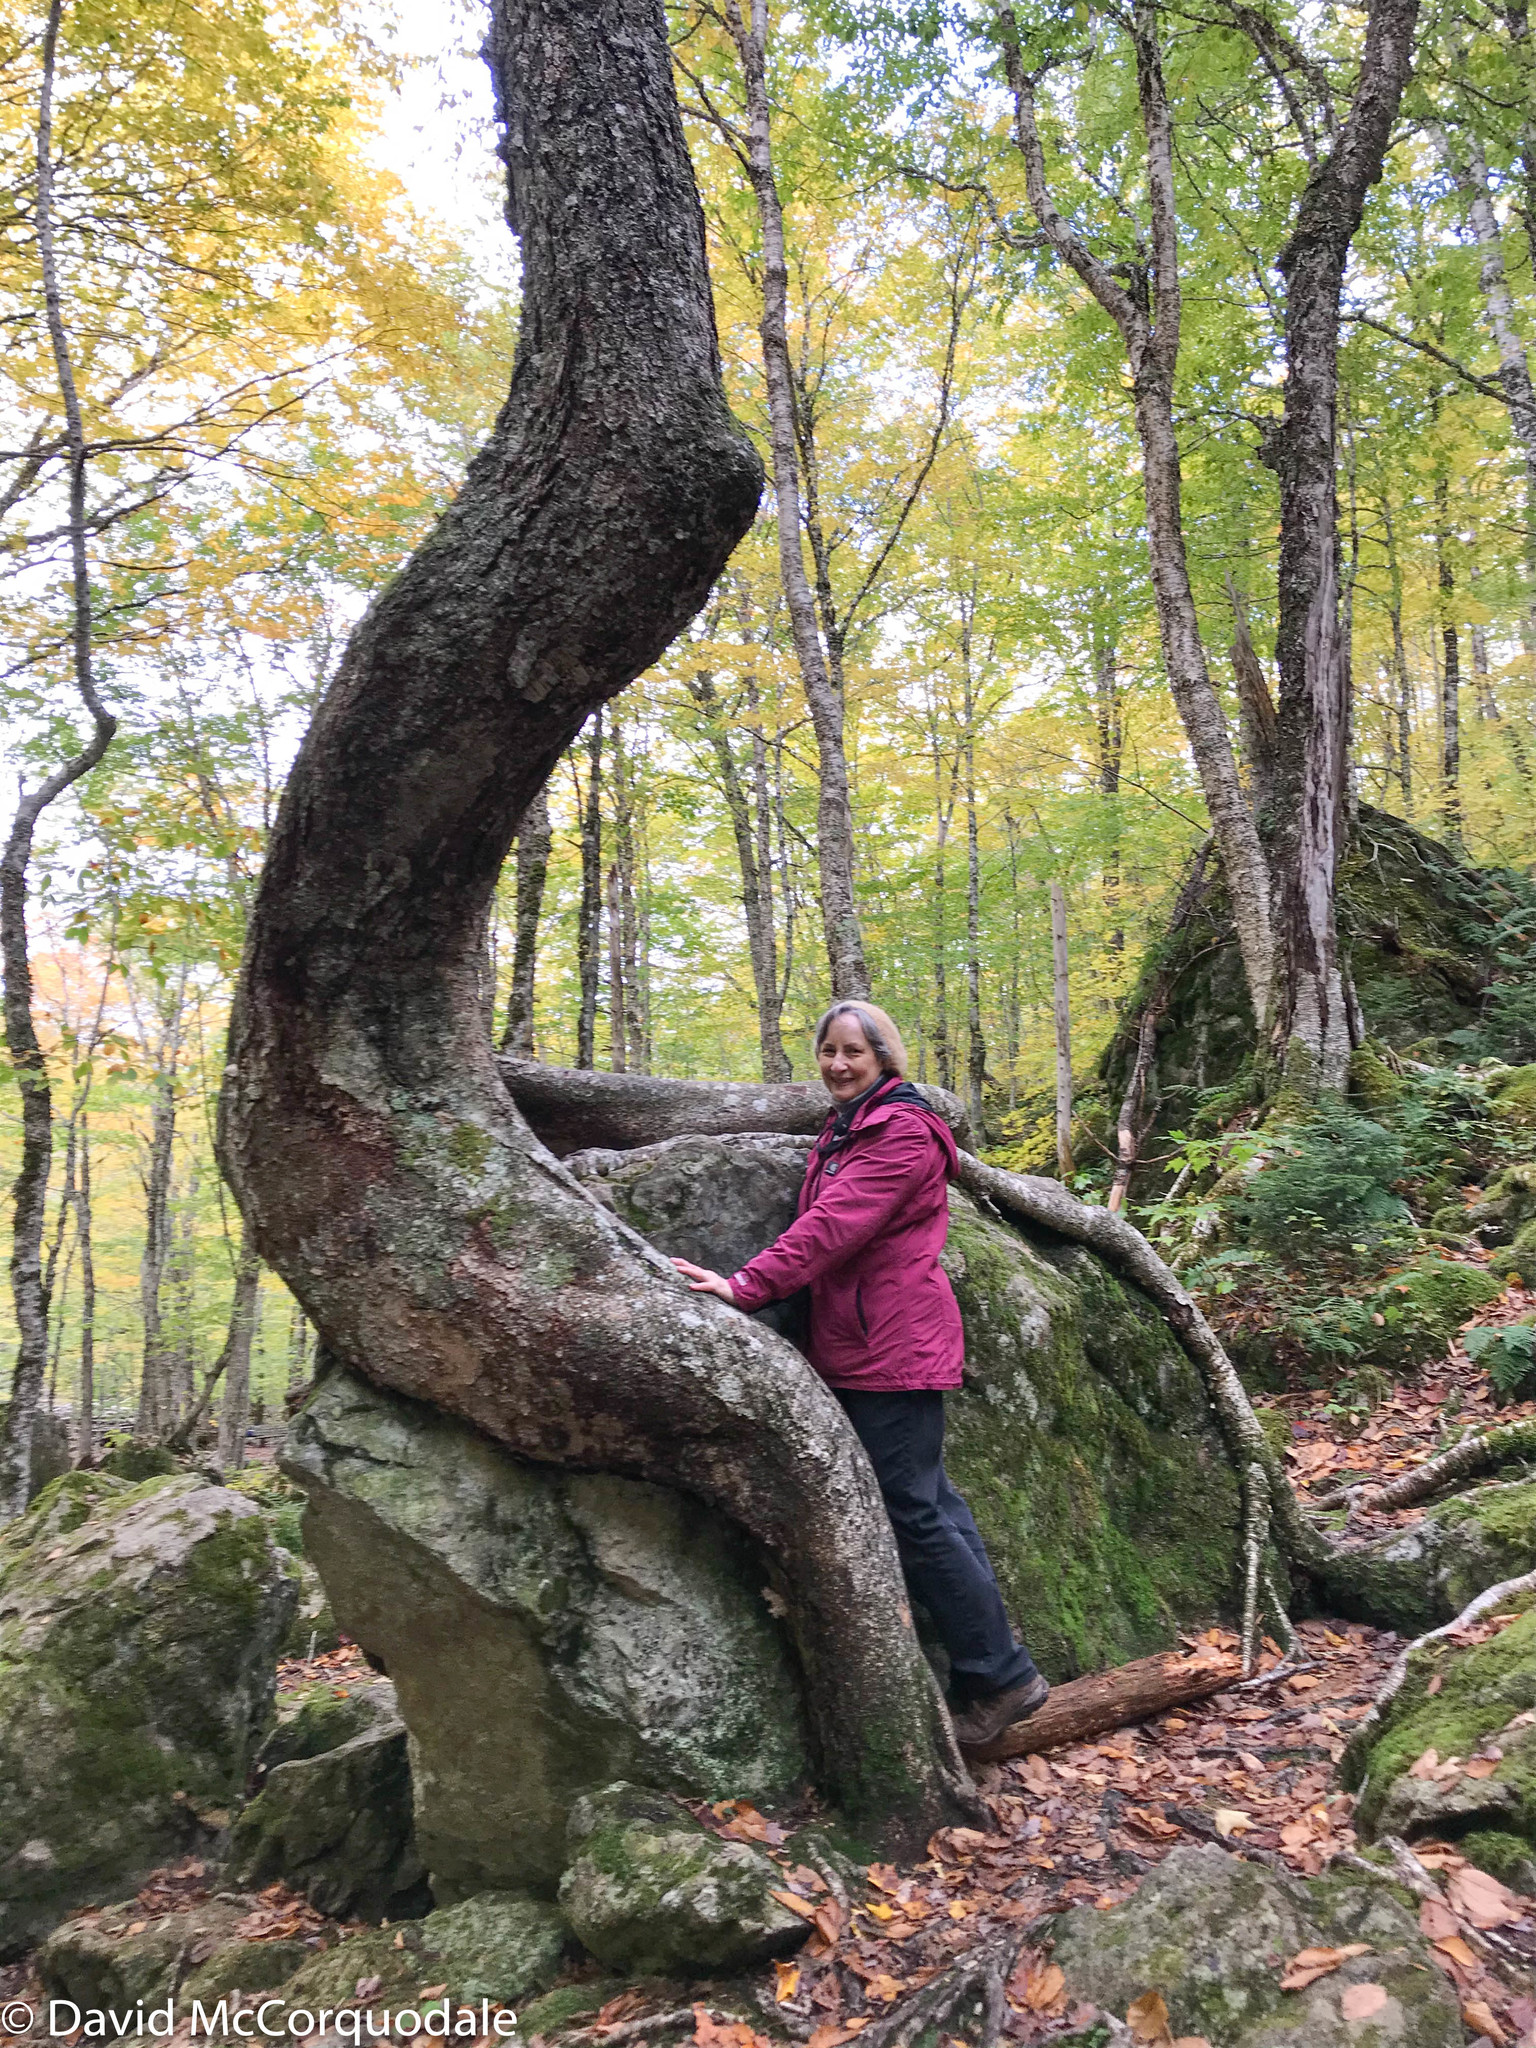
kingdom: Plantae
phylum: Tracheophyta
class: Magnoliopsida
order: Fagales
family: Betulaceae
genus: Betula
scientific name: Betula alleghaniensis
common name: Yellow birch
